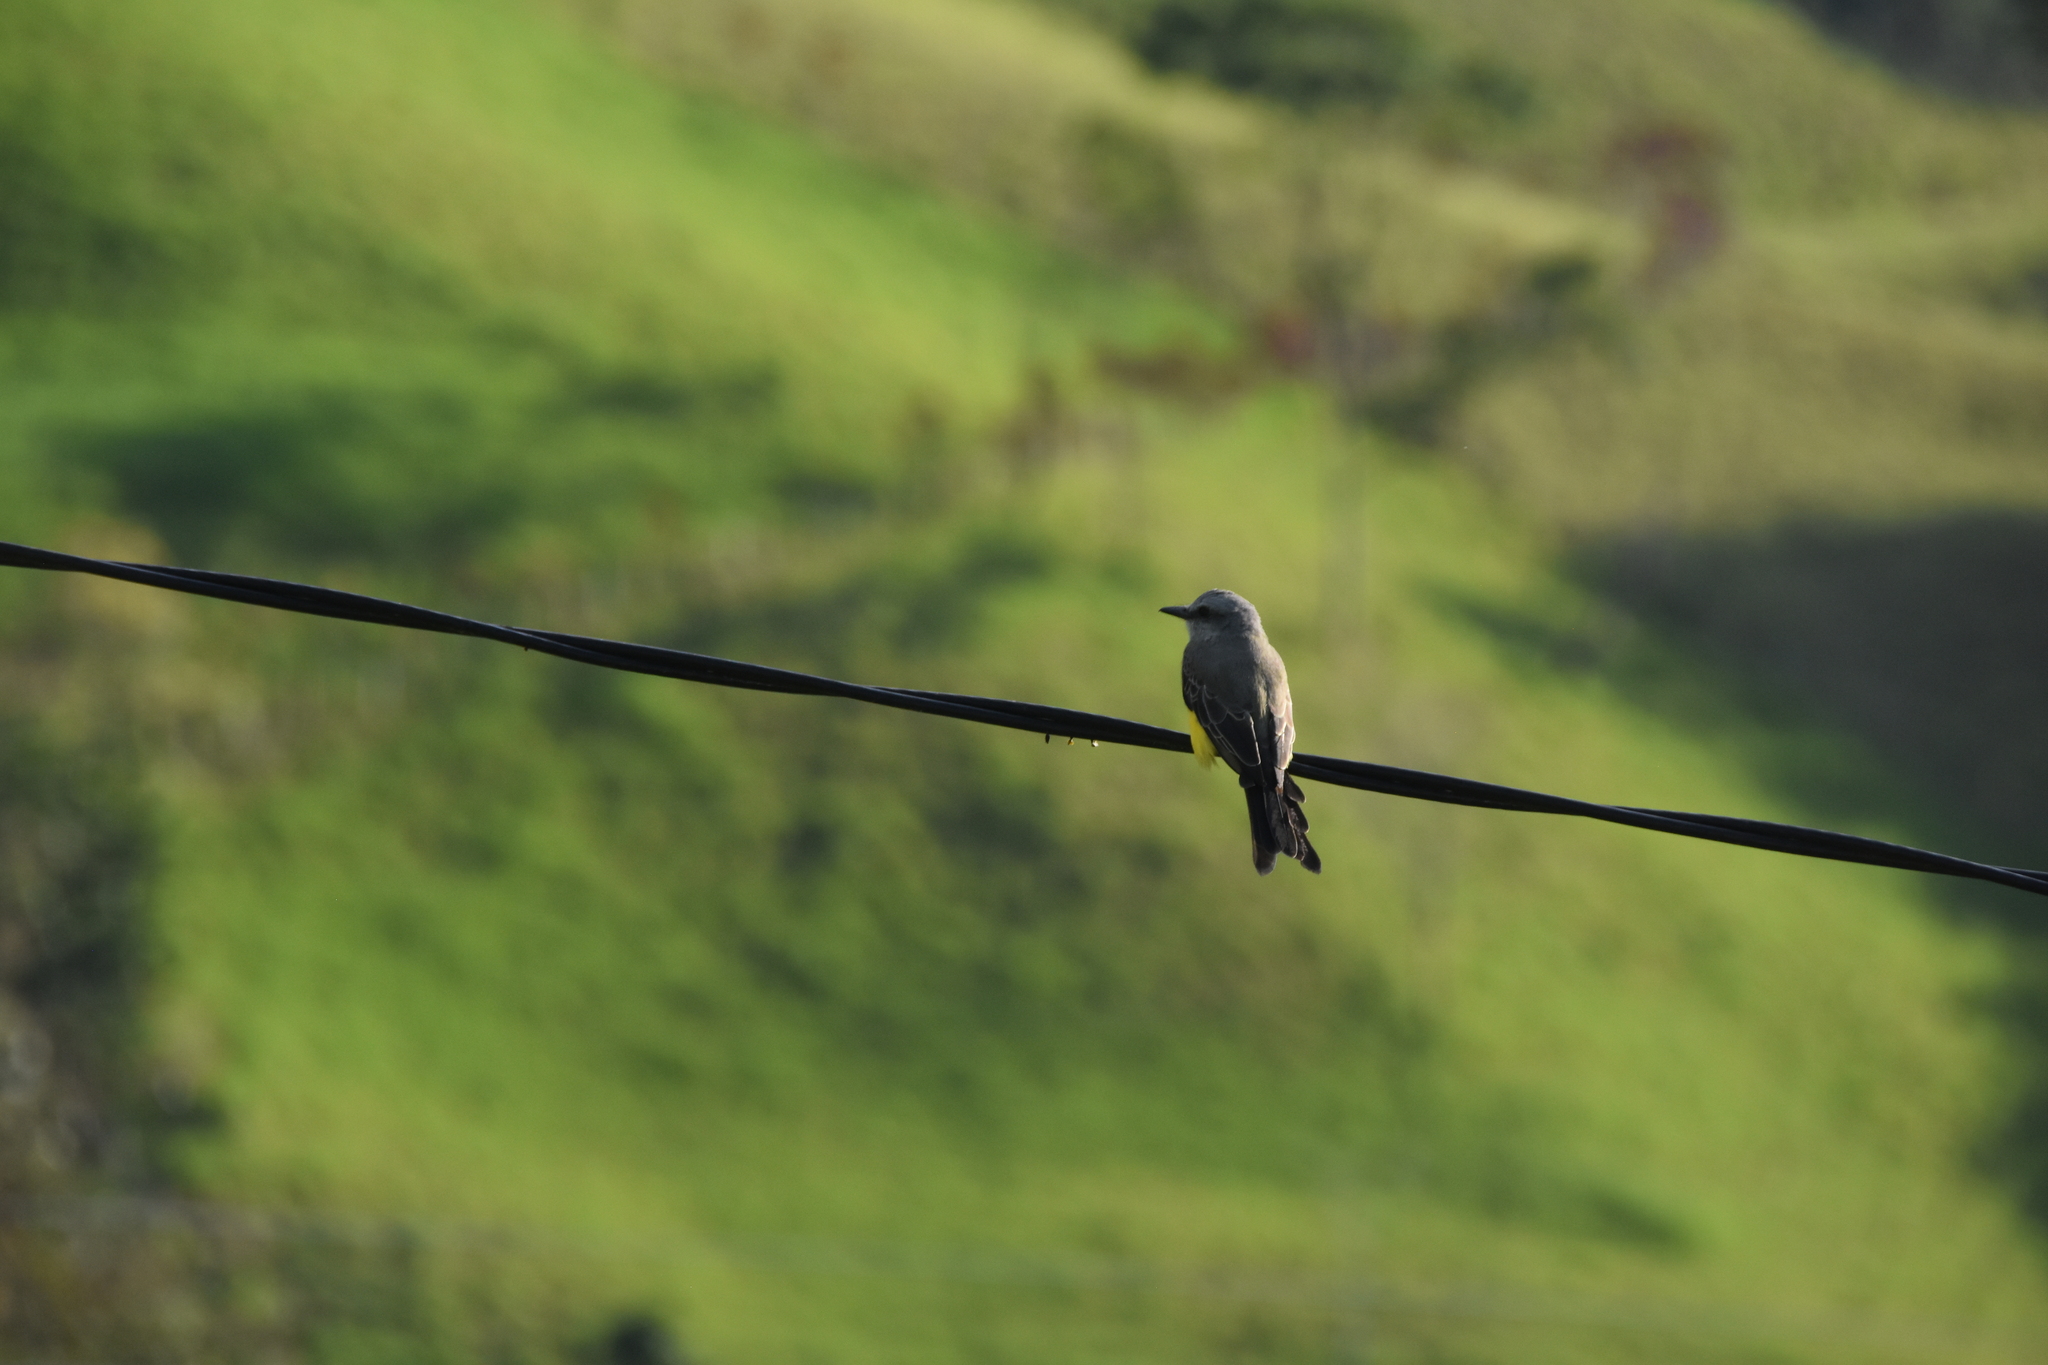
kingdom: Animalia
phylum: Chordata
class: Aves
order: Passeriformes
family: Tyrannidae
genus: Tyrannus
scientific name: Tyrannus melancholicus
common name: Tropical kingbird
